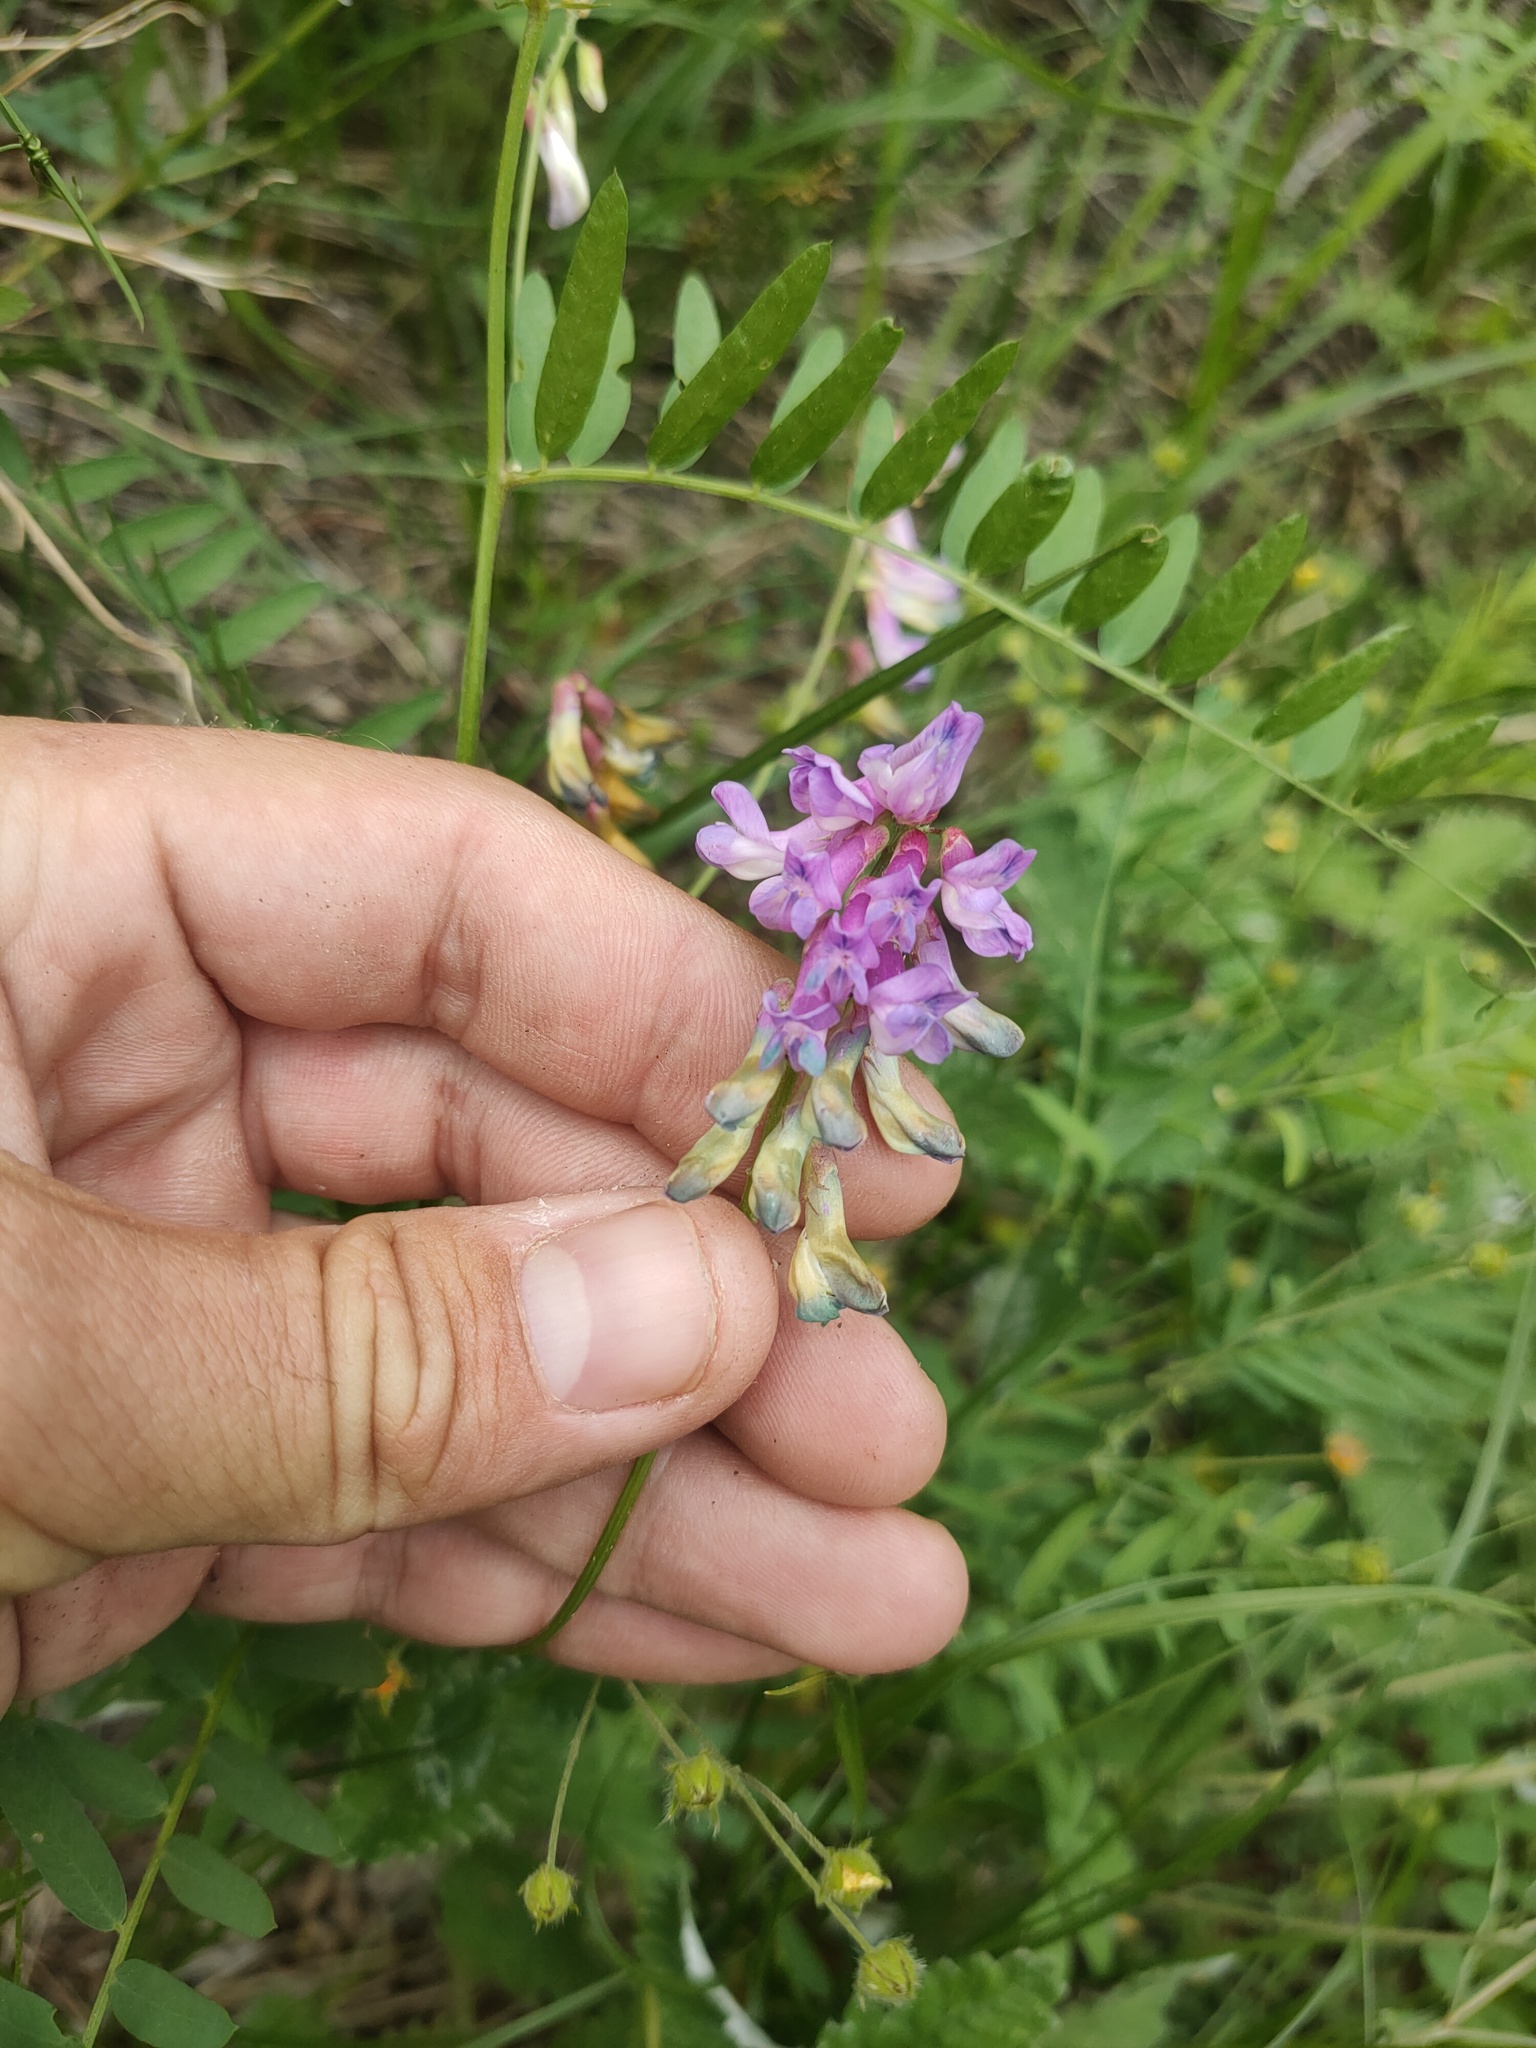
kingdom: Plantae
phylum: Tracheophyta
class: Magnoliopsida
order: Fabales
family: Fabaceae
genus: Vicia
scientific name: Vicia multicaulis
